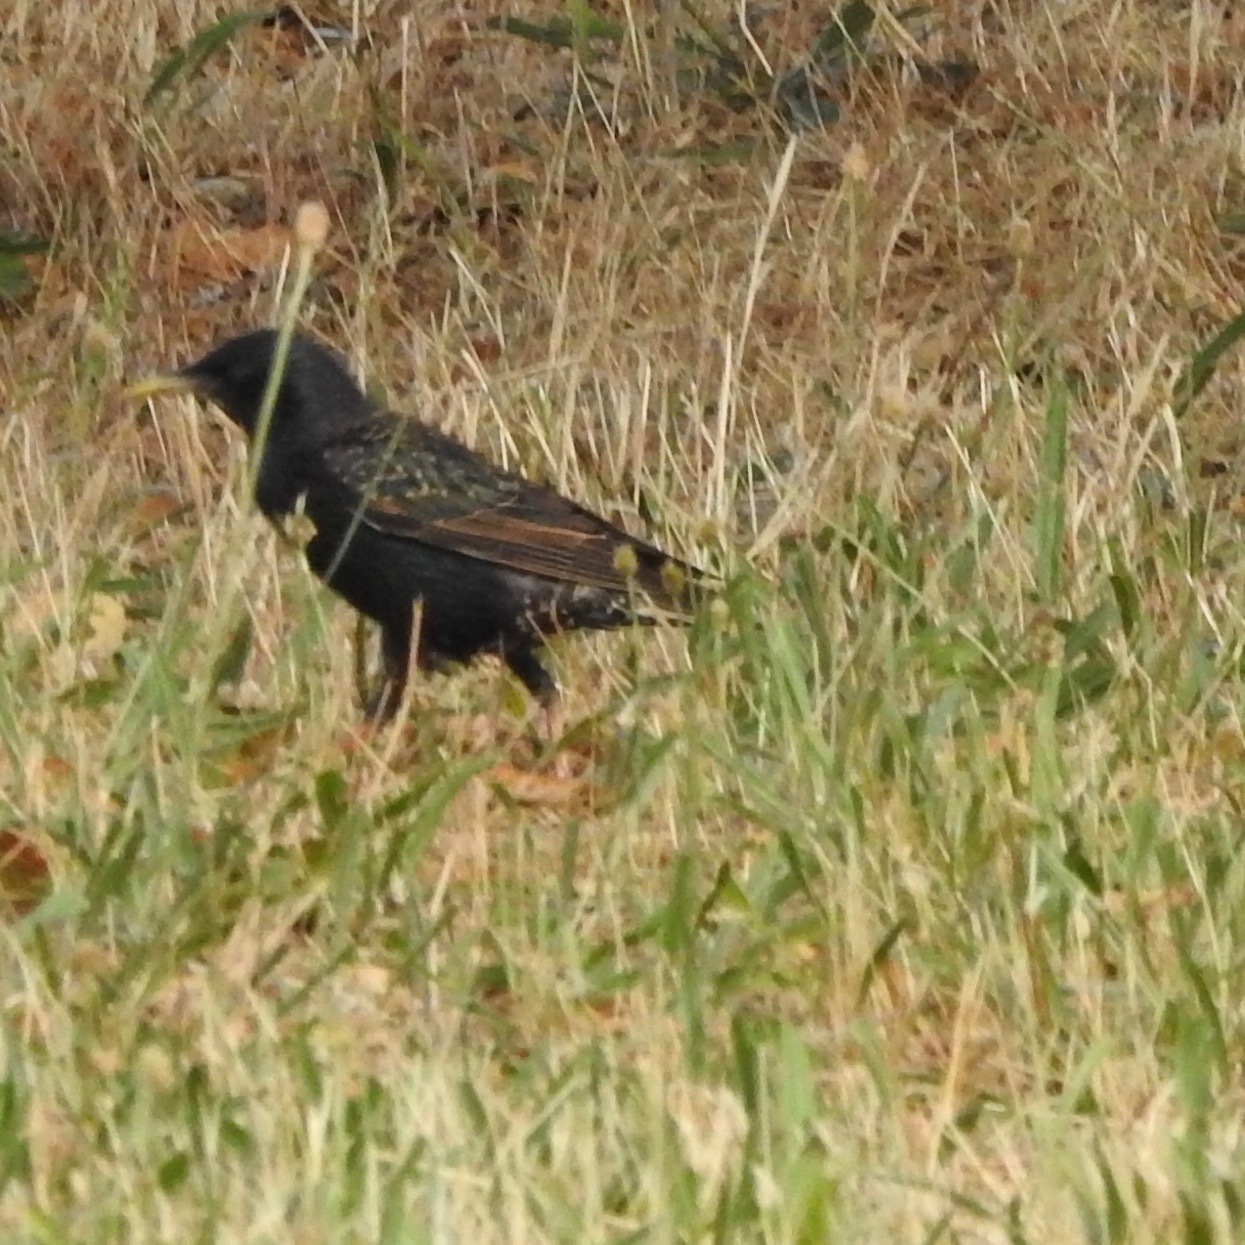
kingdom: Animalia
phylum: Chordata
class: Aves
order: Passeriformes
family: Sturnidae
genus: Sturnus
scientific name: Sturnus vulgaris
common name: Common starling
